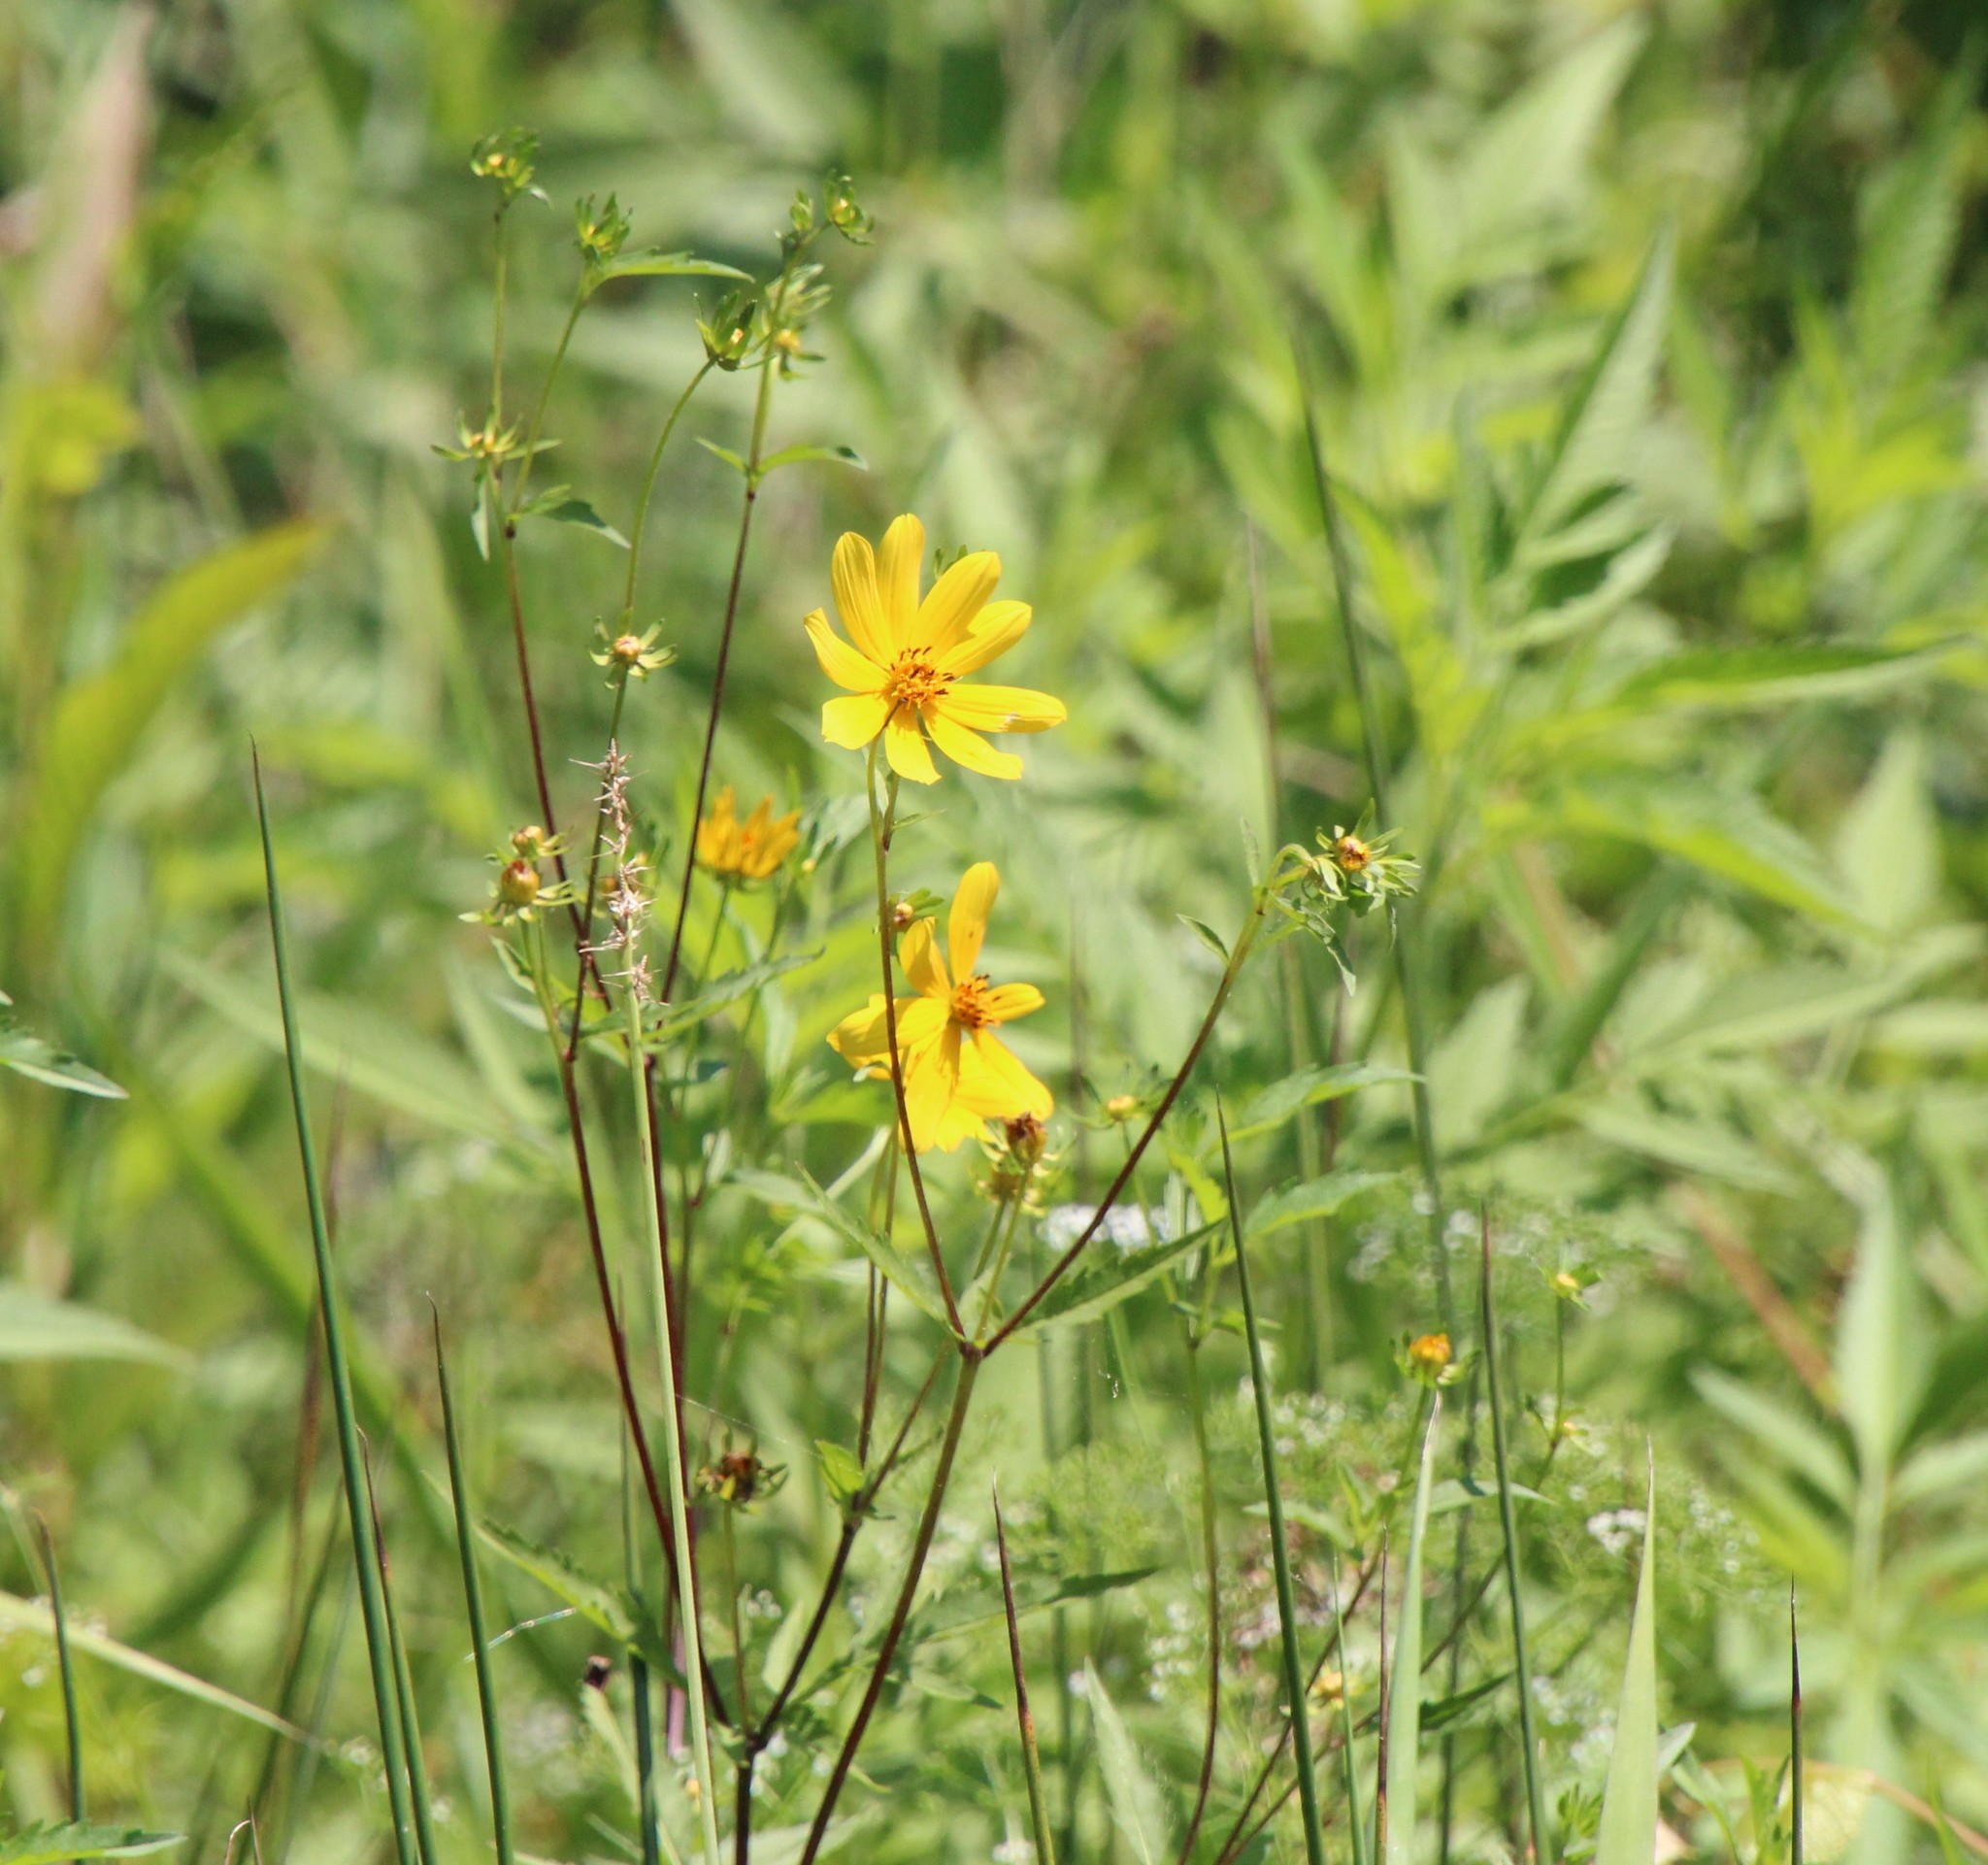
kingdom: Plantae
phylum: Tracheophyta
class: Magnoliopsida
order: Asterales
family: Asteraceae
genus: Bidens
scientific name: Bidens aristosa
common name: Western tickseed
